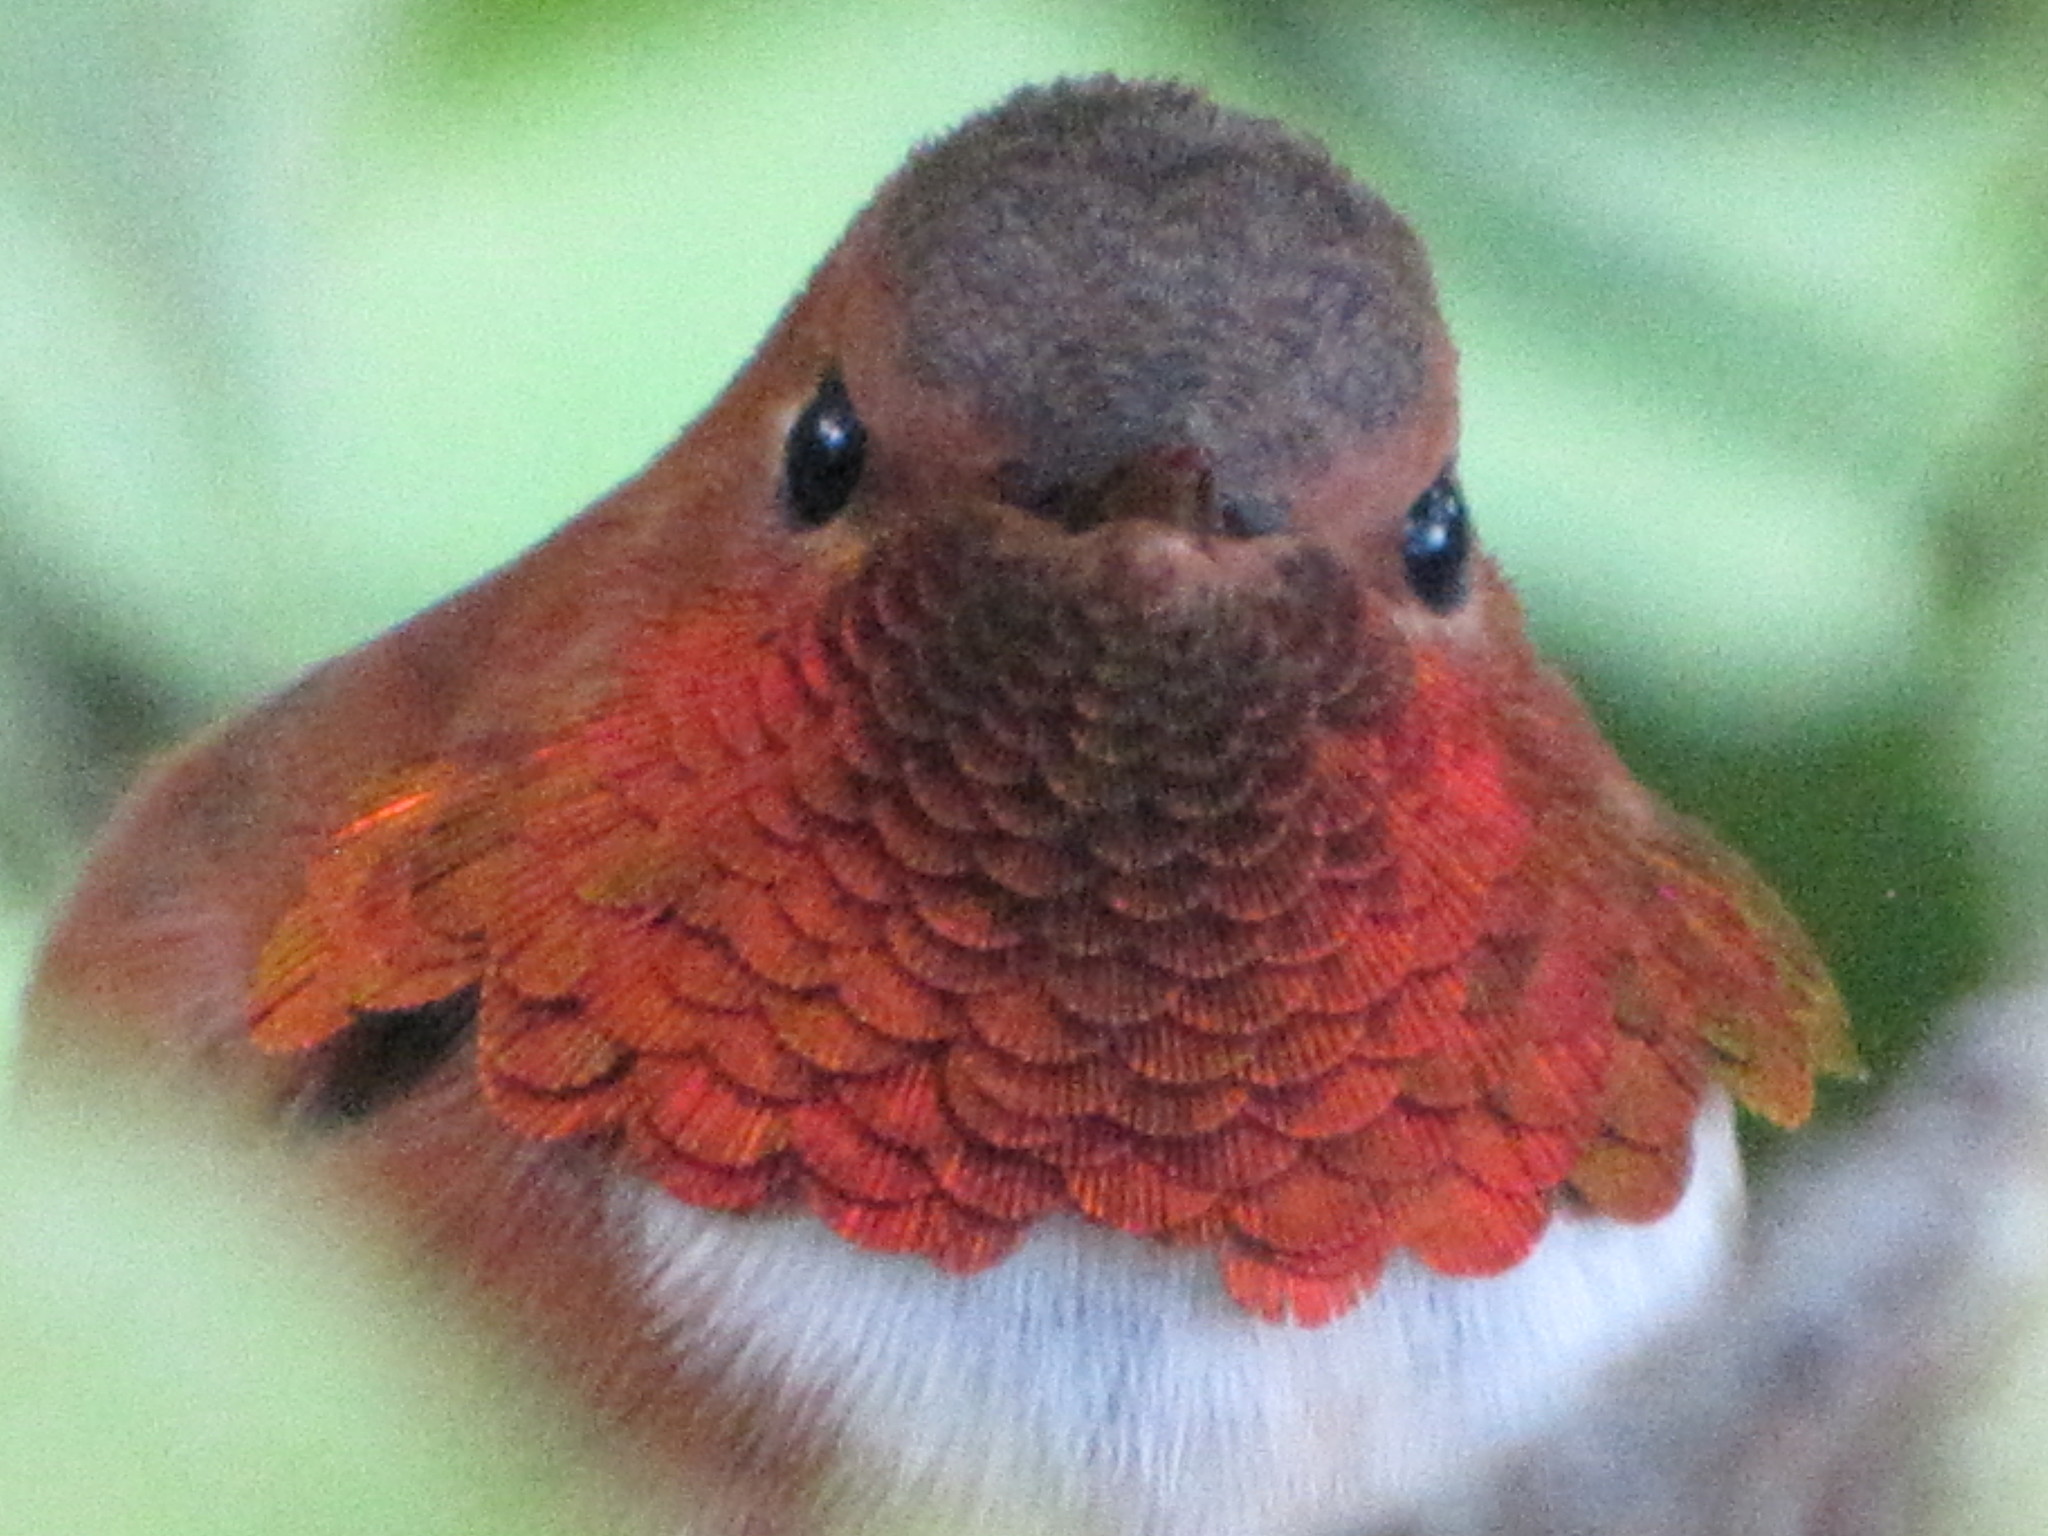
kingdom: Animalia
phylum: Chordata
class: Aves
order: Apodiformes
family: Trochilidae
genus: Selasphorus
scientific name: Selasphorus rufus
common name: Rufous hummingbird
